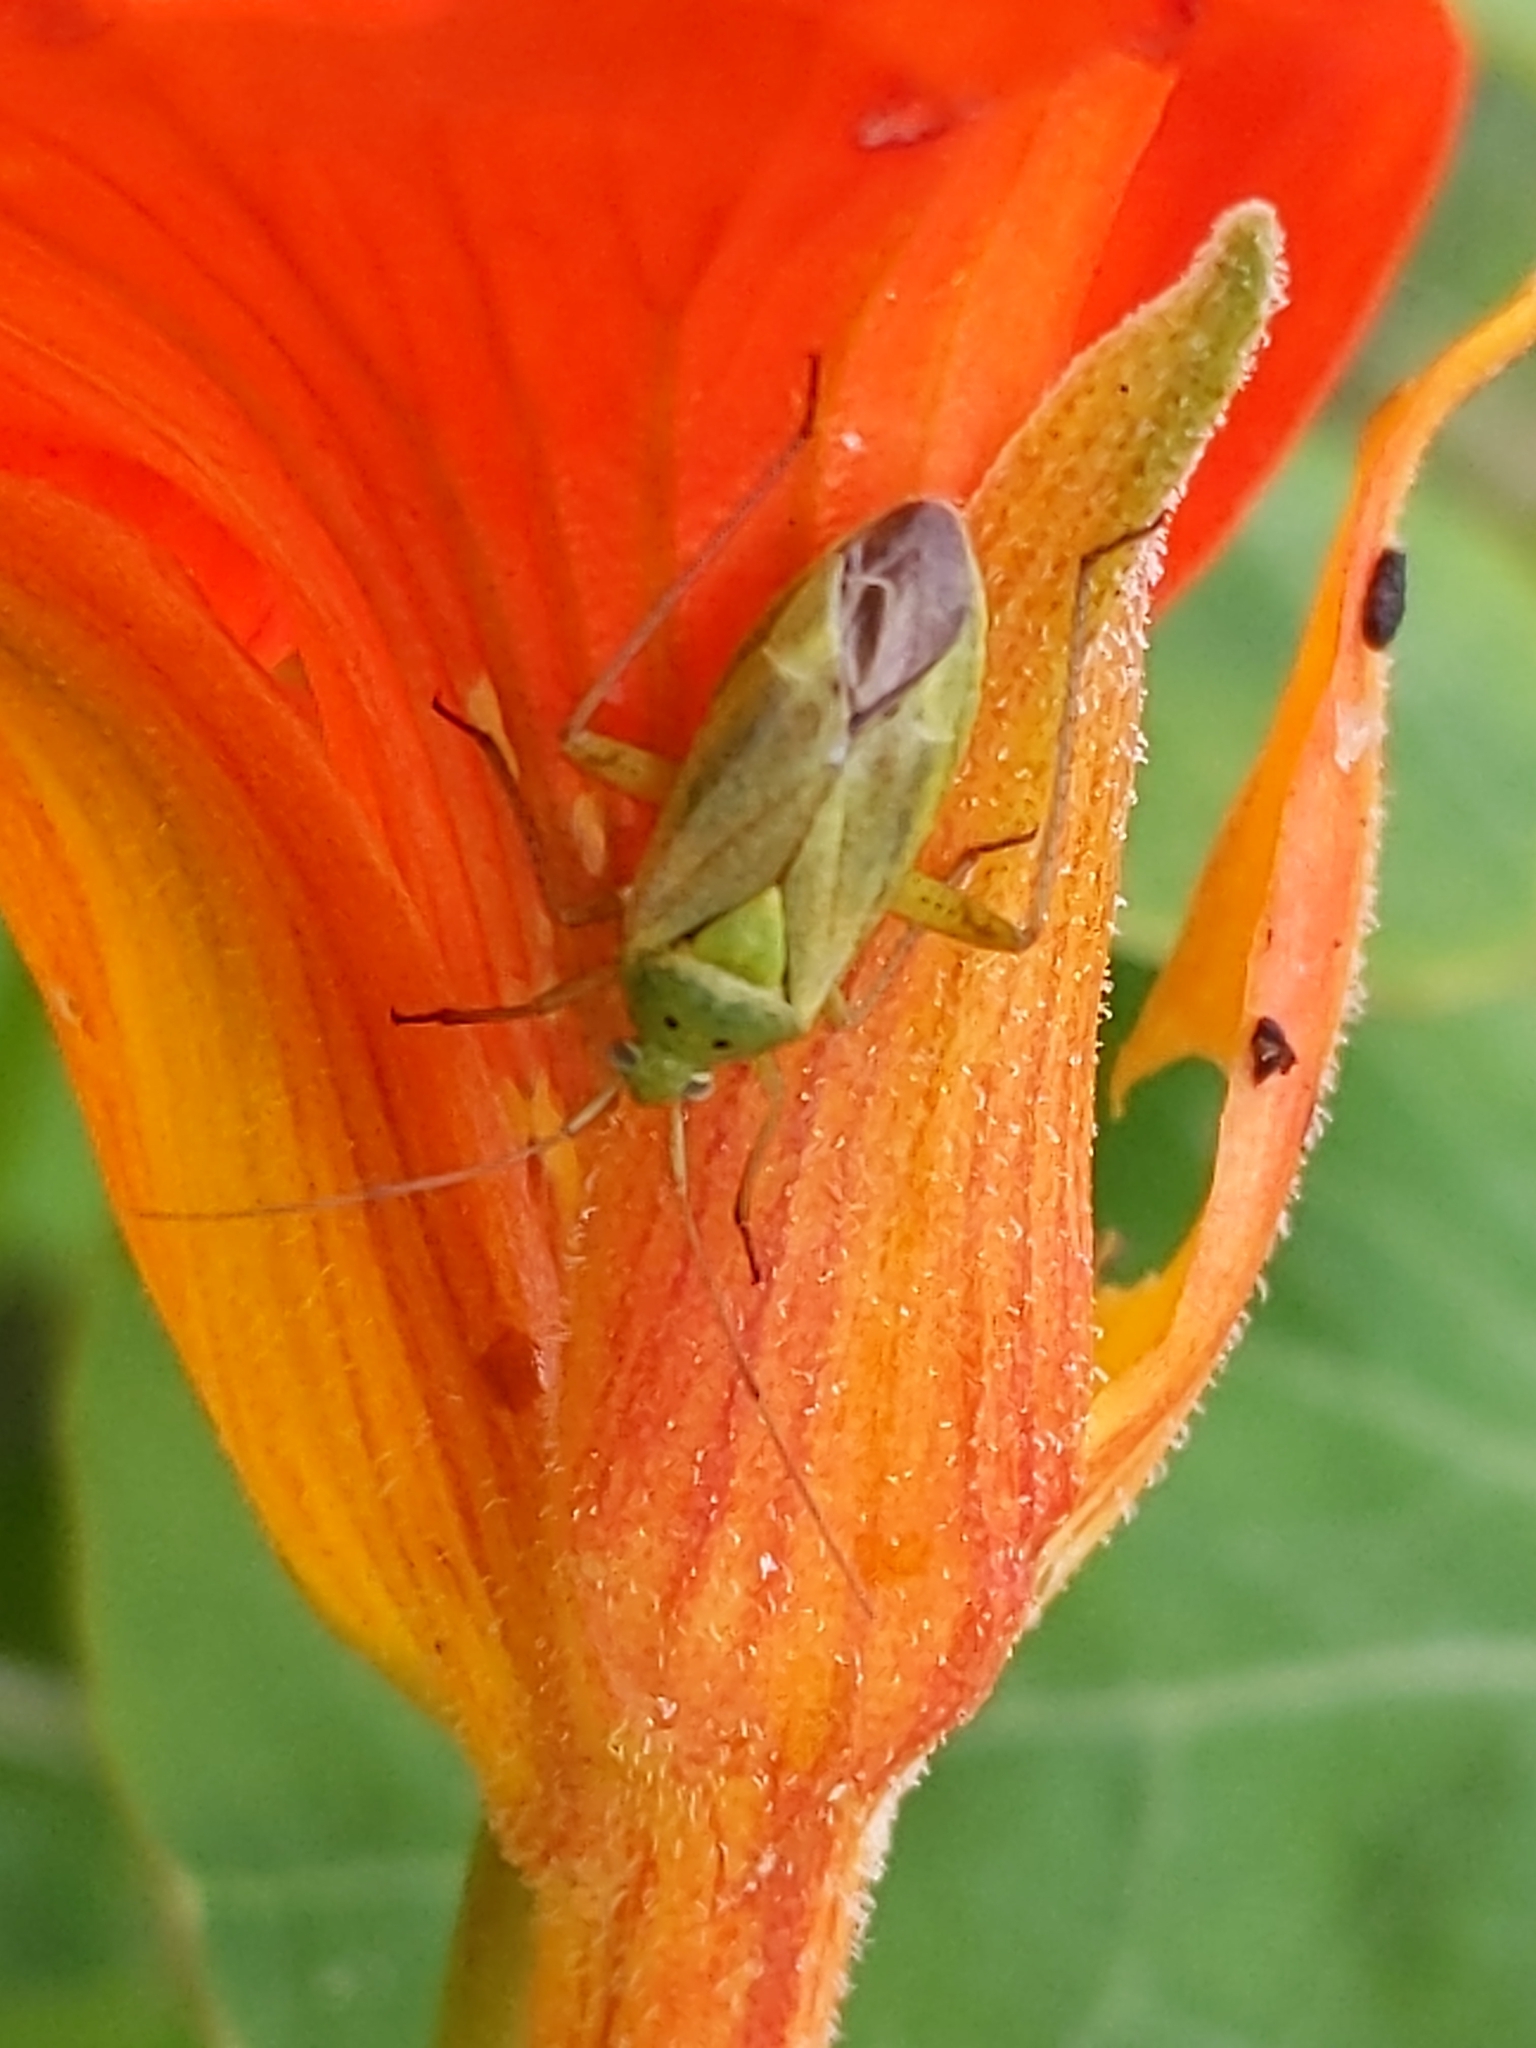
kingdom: Animalia
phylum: Arthropoda
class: Insecta
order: Hemiptera
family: Miridae
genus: Closterotomus
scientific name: Closterotomus norvegicus
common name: Plant bug
